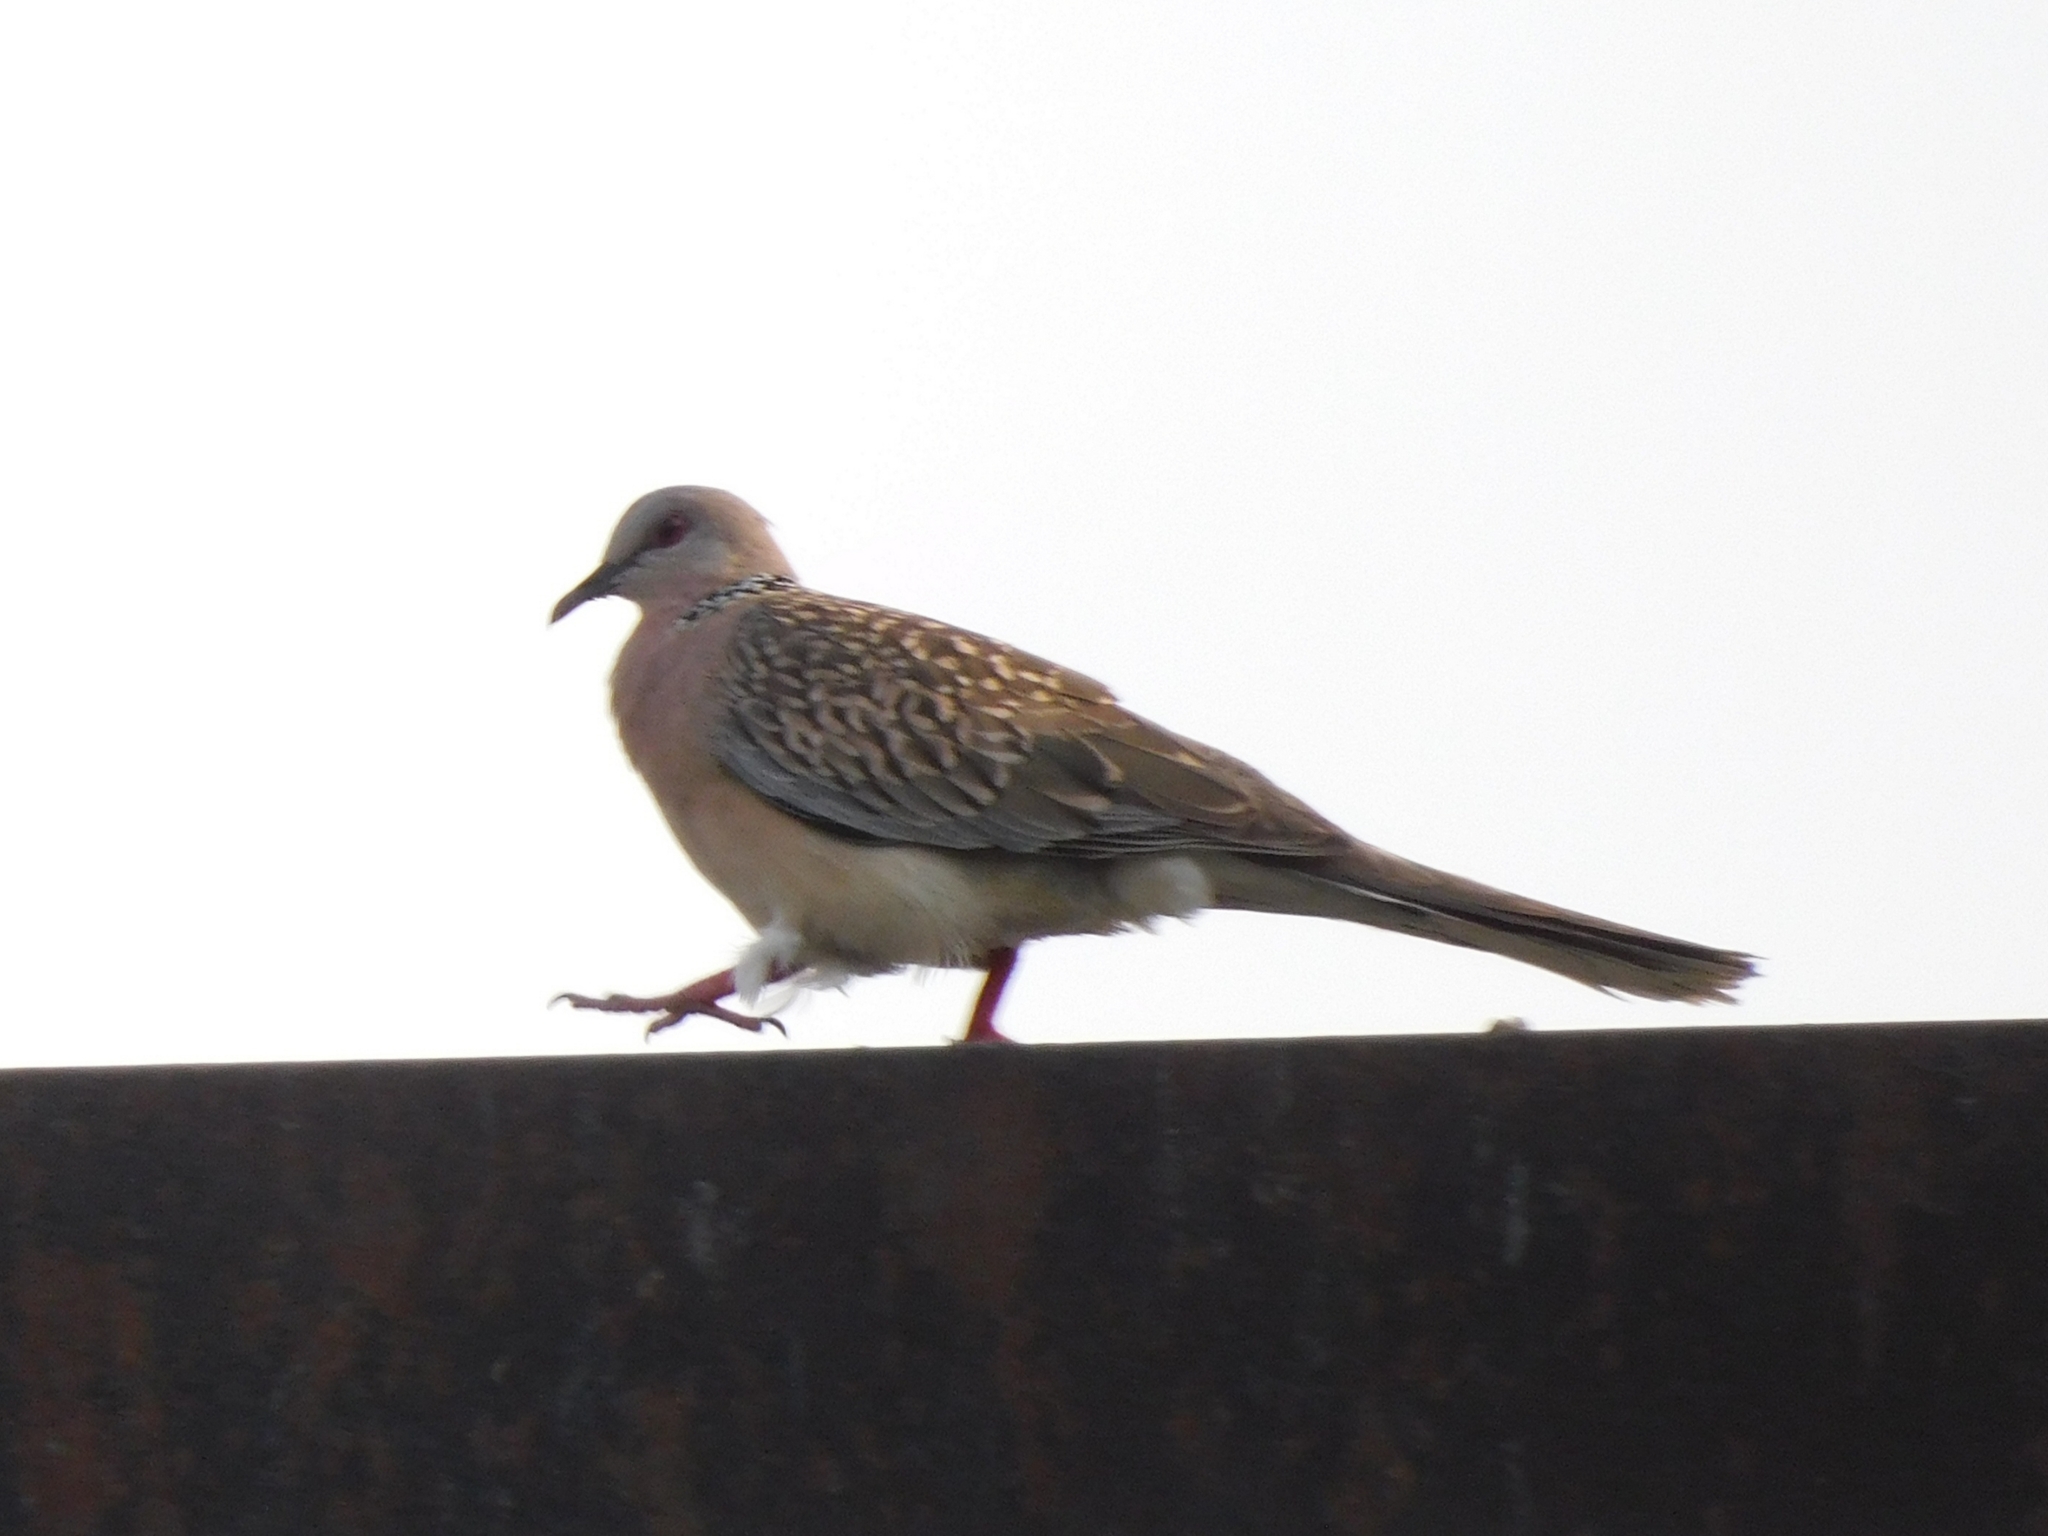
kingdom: Animalia
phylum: Chordata
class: Aves
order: Columbiformes
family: Columbidae
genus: Spilopelia
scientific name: Spilopelia chinensis
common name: Spotted dove
